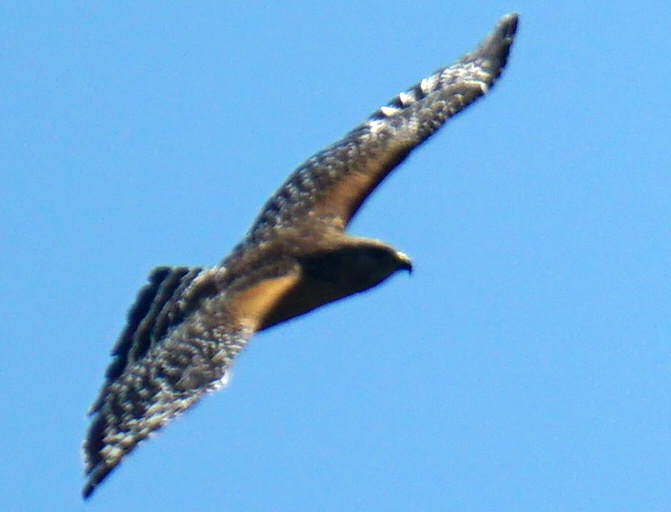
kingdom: Animalia
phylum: Chordata
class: Aves
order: Accipitriformes
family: Accipitridae
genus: Buteo
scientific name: Buteo lineatus
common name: Red-shouldered hawk
